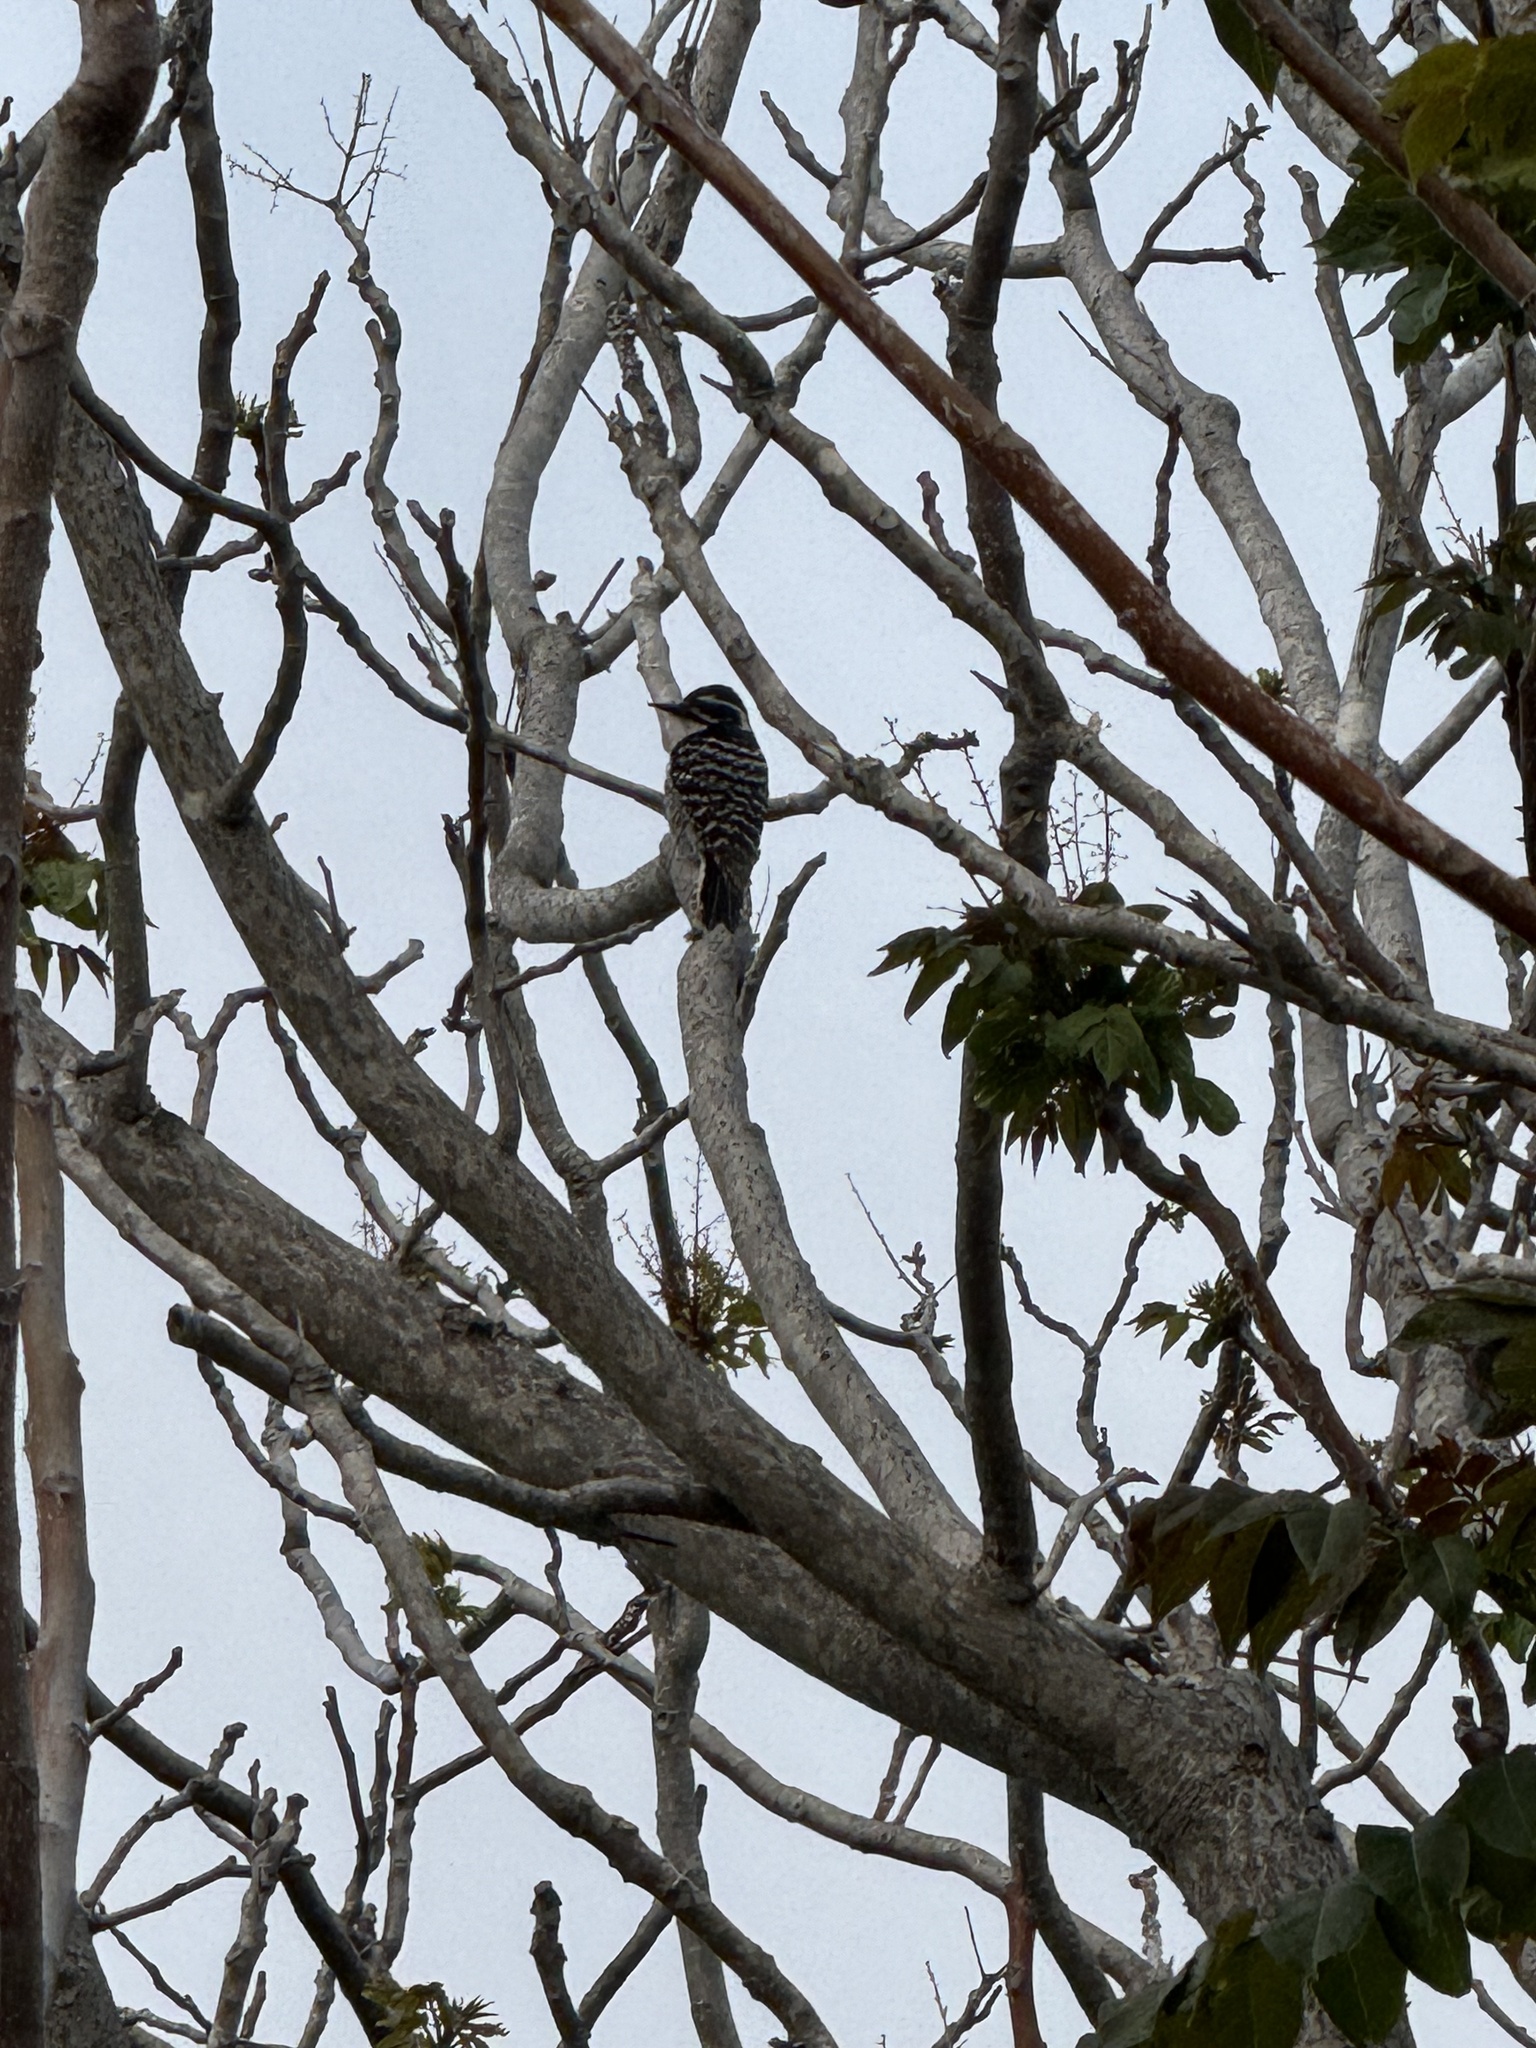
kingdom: Animalia
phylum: Chordata
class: Aves
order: Piciformes
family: Picidae
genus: Dryobates
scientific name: Dryobates nuttallii
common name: Nuttall's woodpecker
